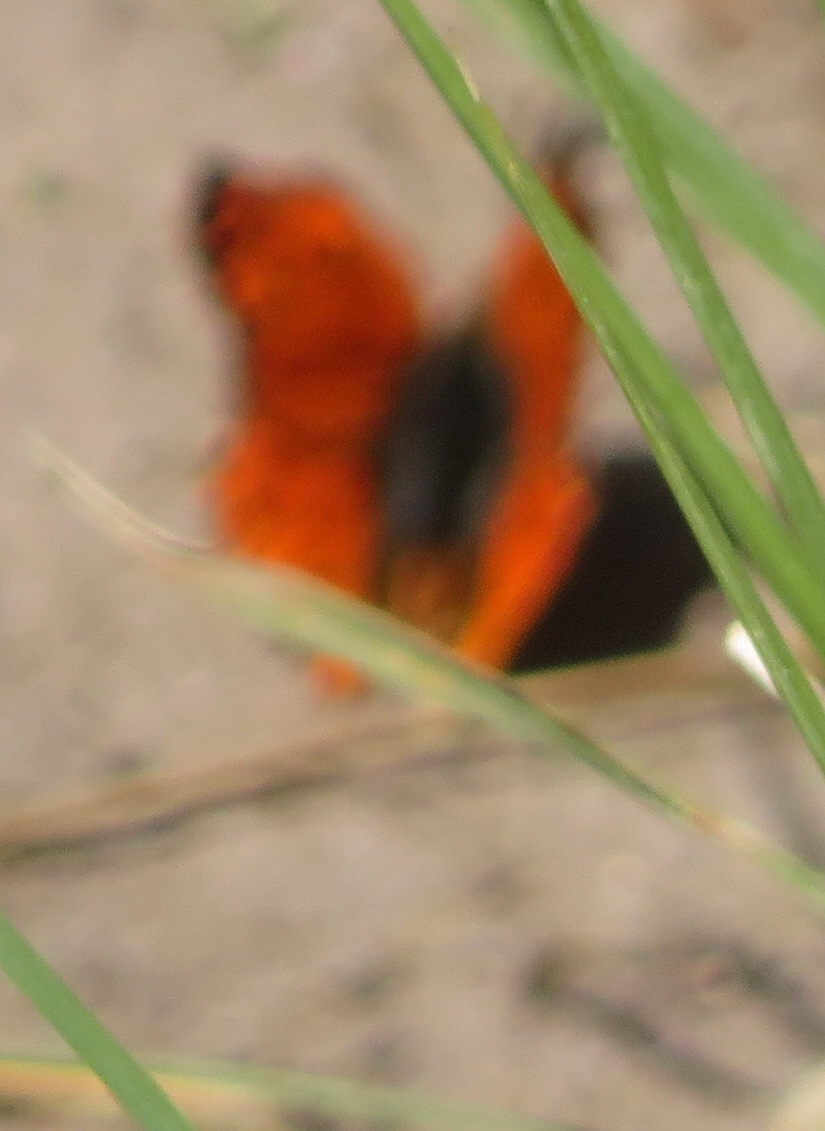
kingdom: Animalia
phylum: Arthropoda
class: Insecta
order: Lepidoptera
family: Lycaenidae
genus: Chrysoritis
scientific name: Chrysoritis
